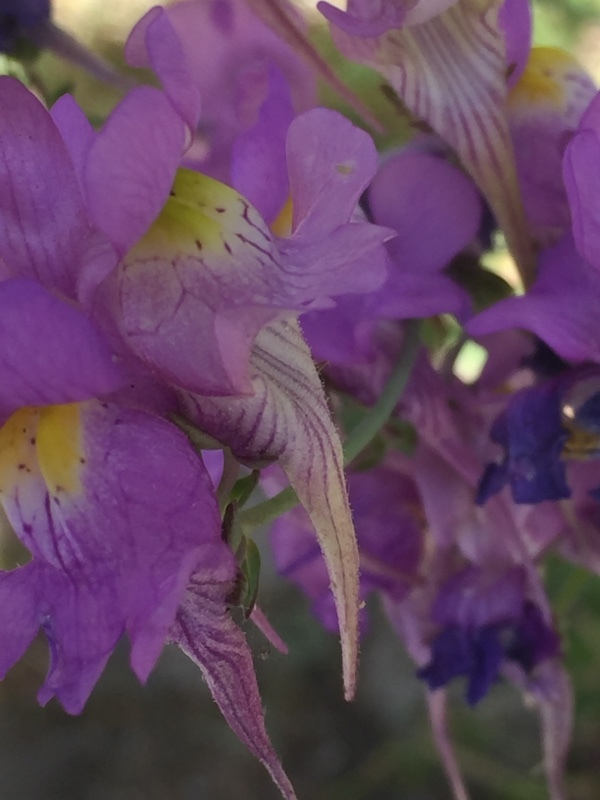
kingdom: Plantae
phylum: Tracheophyta
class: Magnoliopsida
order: Lamiales
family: Plantaginaceae
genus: Linaria
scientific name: Linaria triornithophora
